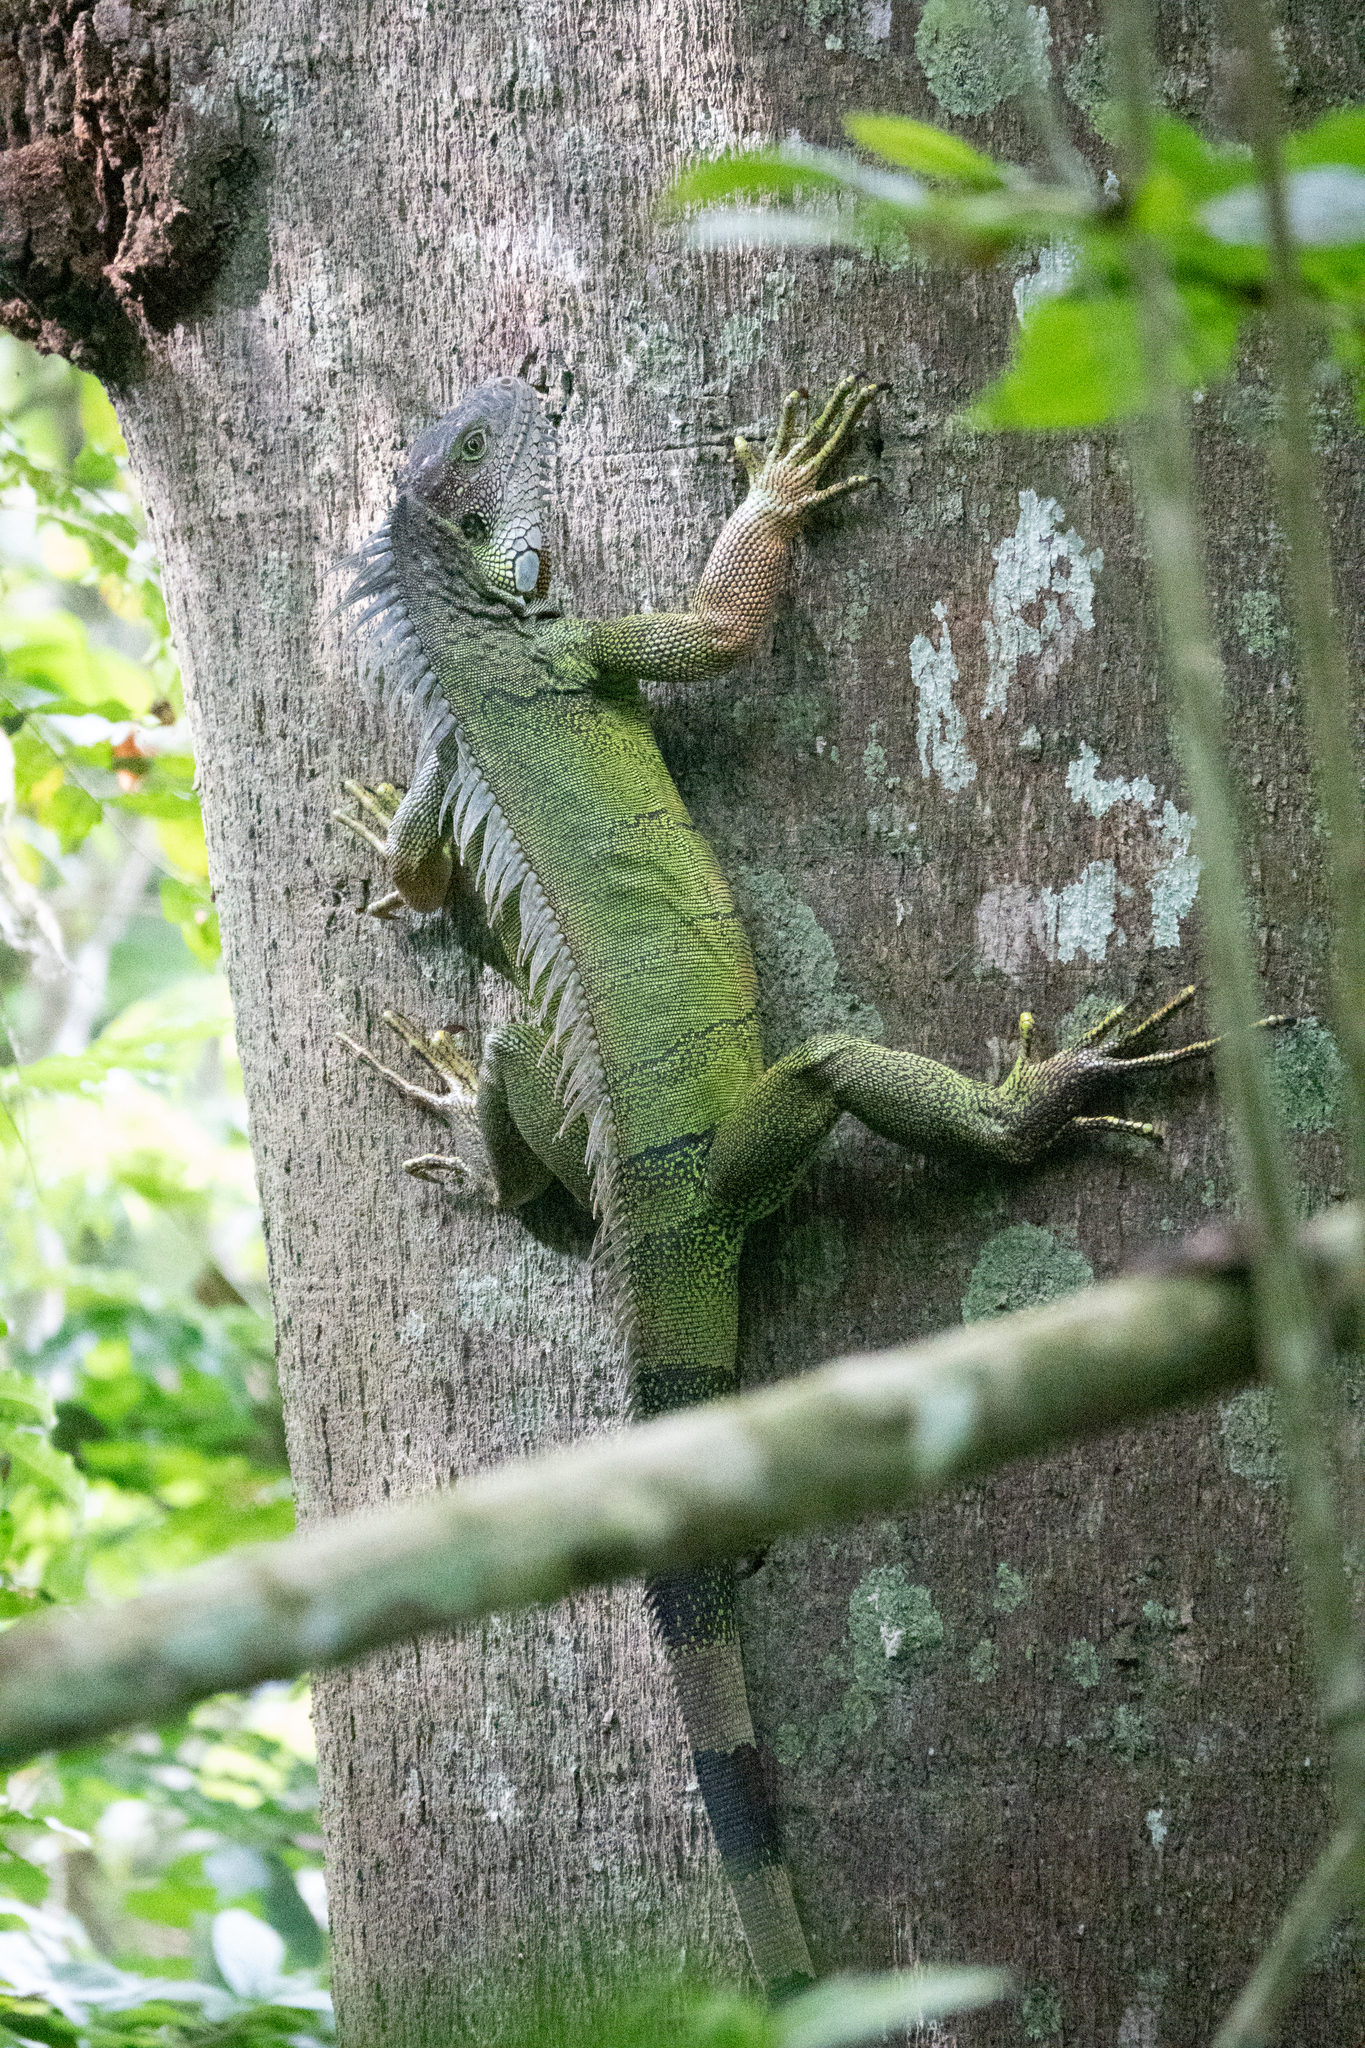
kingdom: Animalia
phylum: Chordata
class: Squamata
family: Iguanidae
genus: Iguana
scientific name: Iguana iguana
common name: Green iguana
